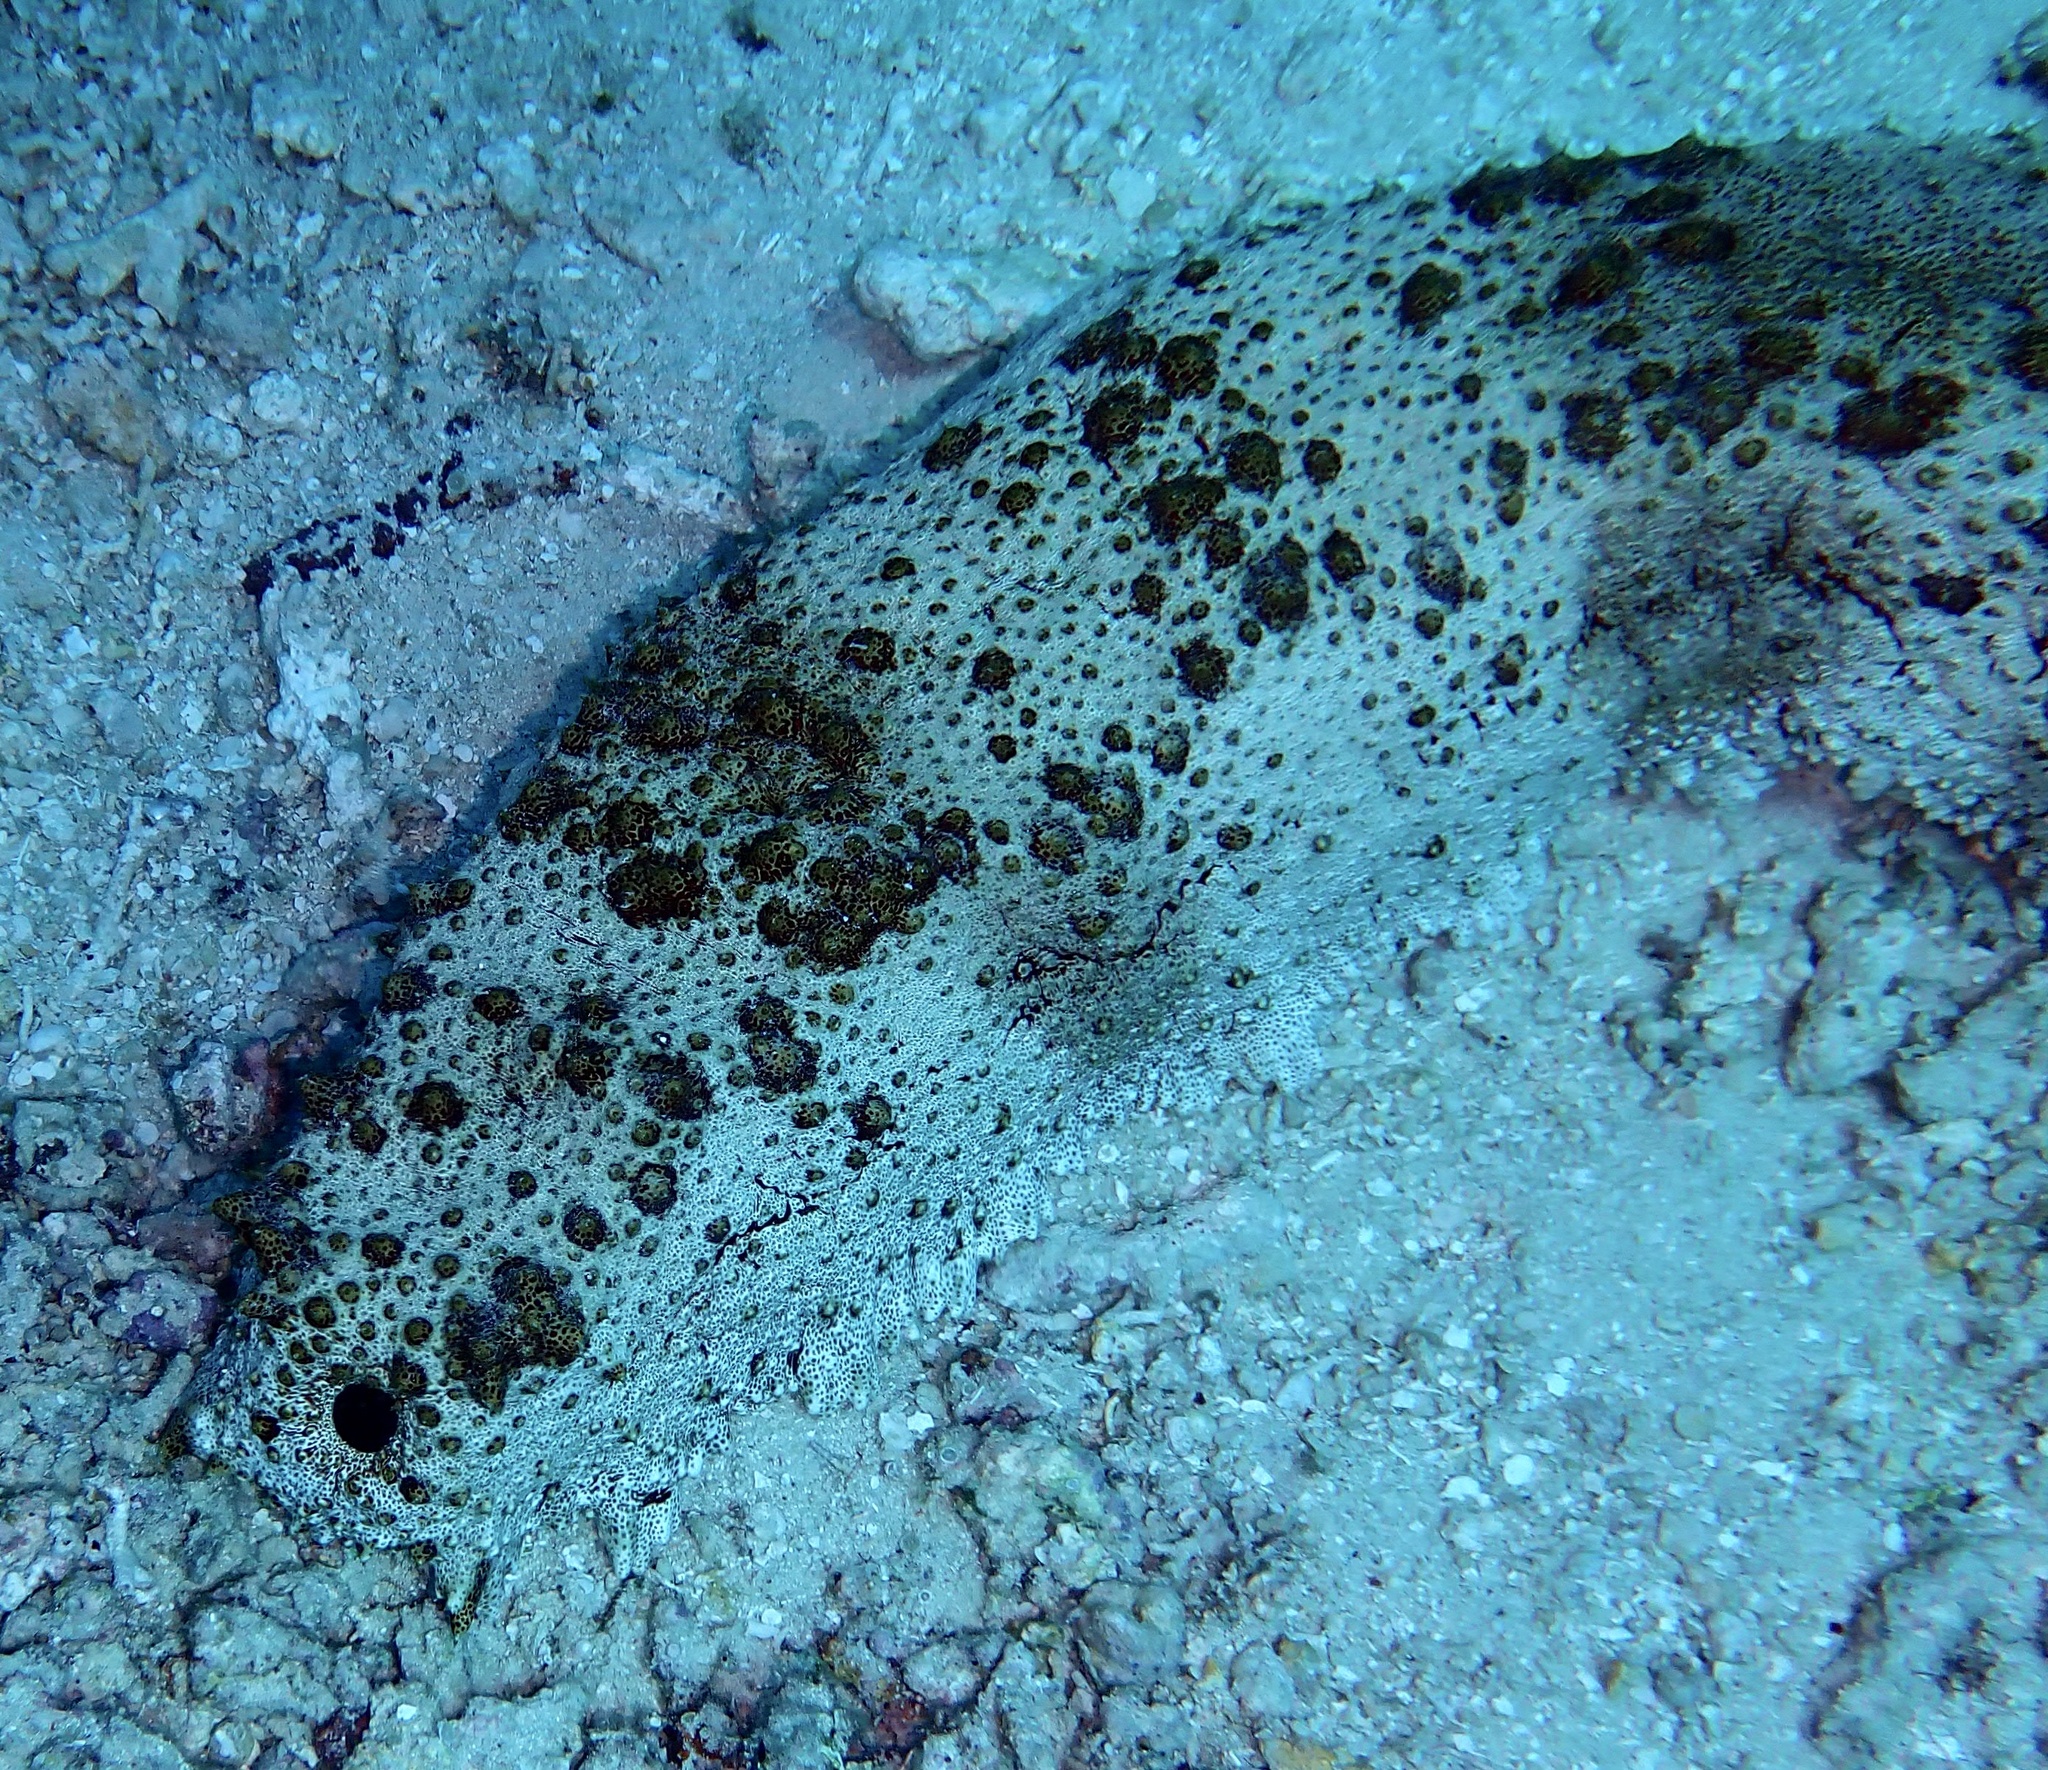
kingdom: Animalia
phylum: Echinodermata
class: Holothuroidea
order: Synallactida
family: Stichopodidae
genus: Thelenota
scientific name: Thelenota anax
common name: Amberfish
